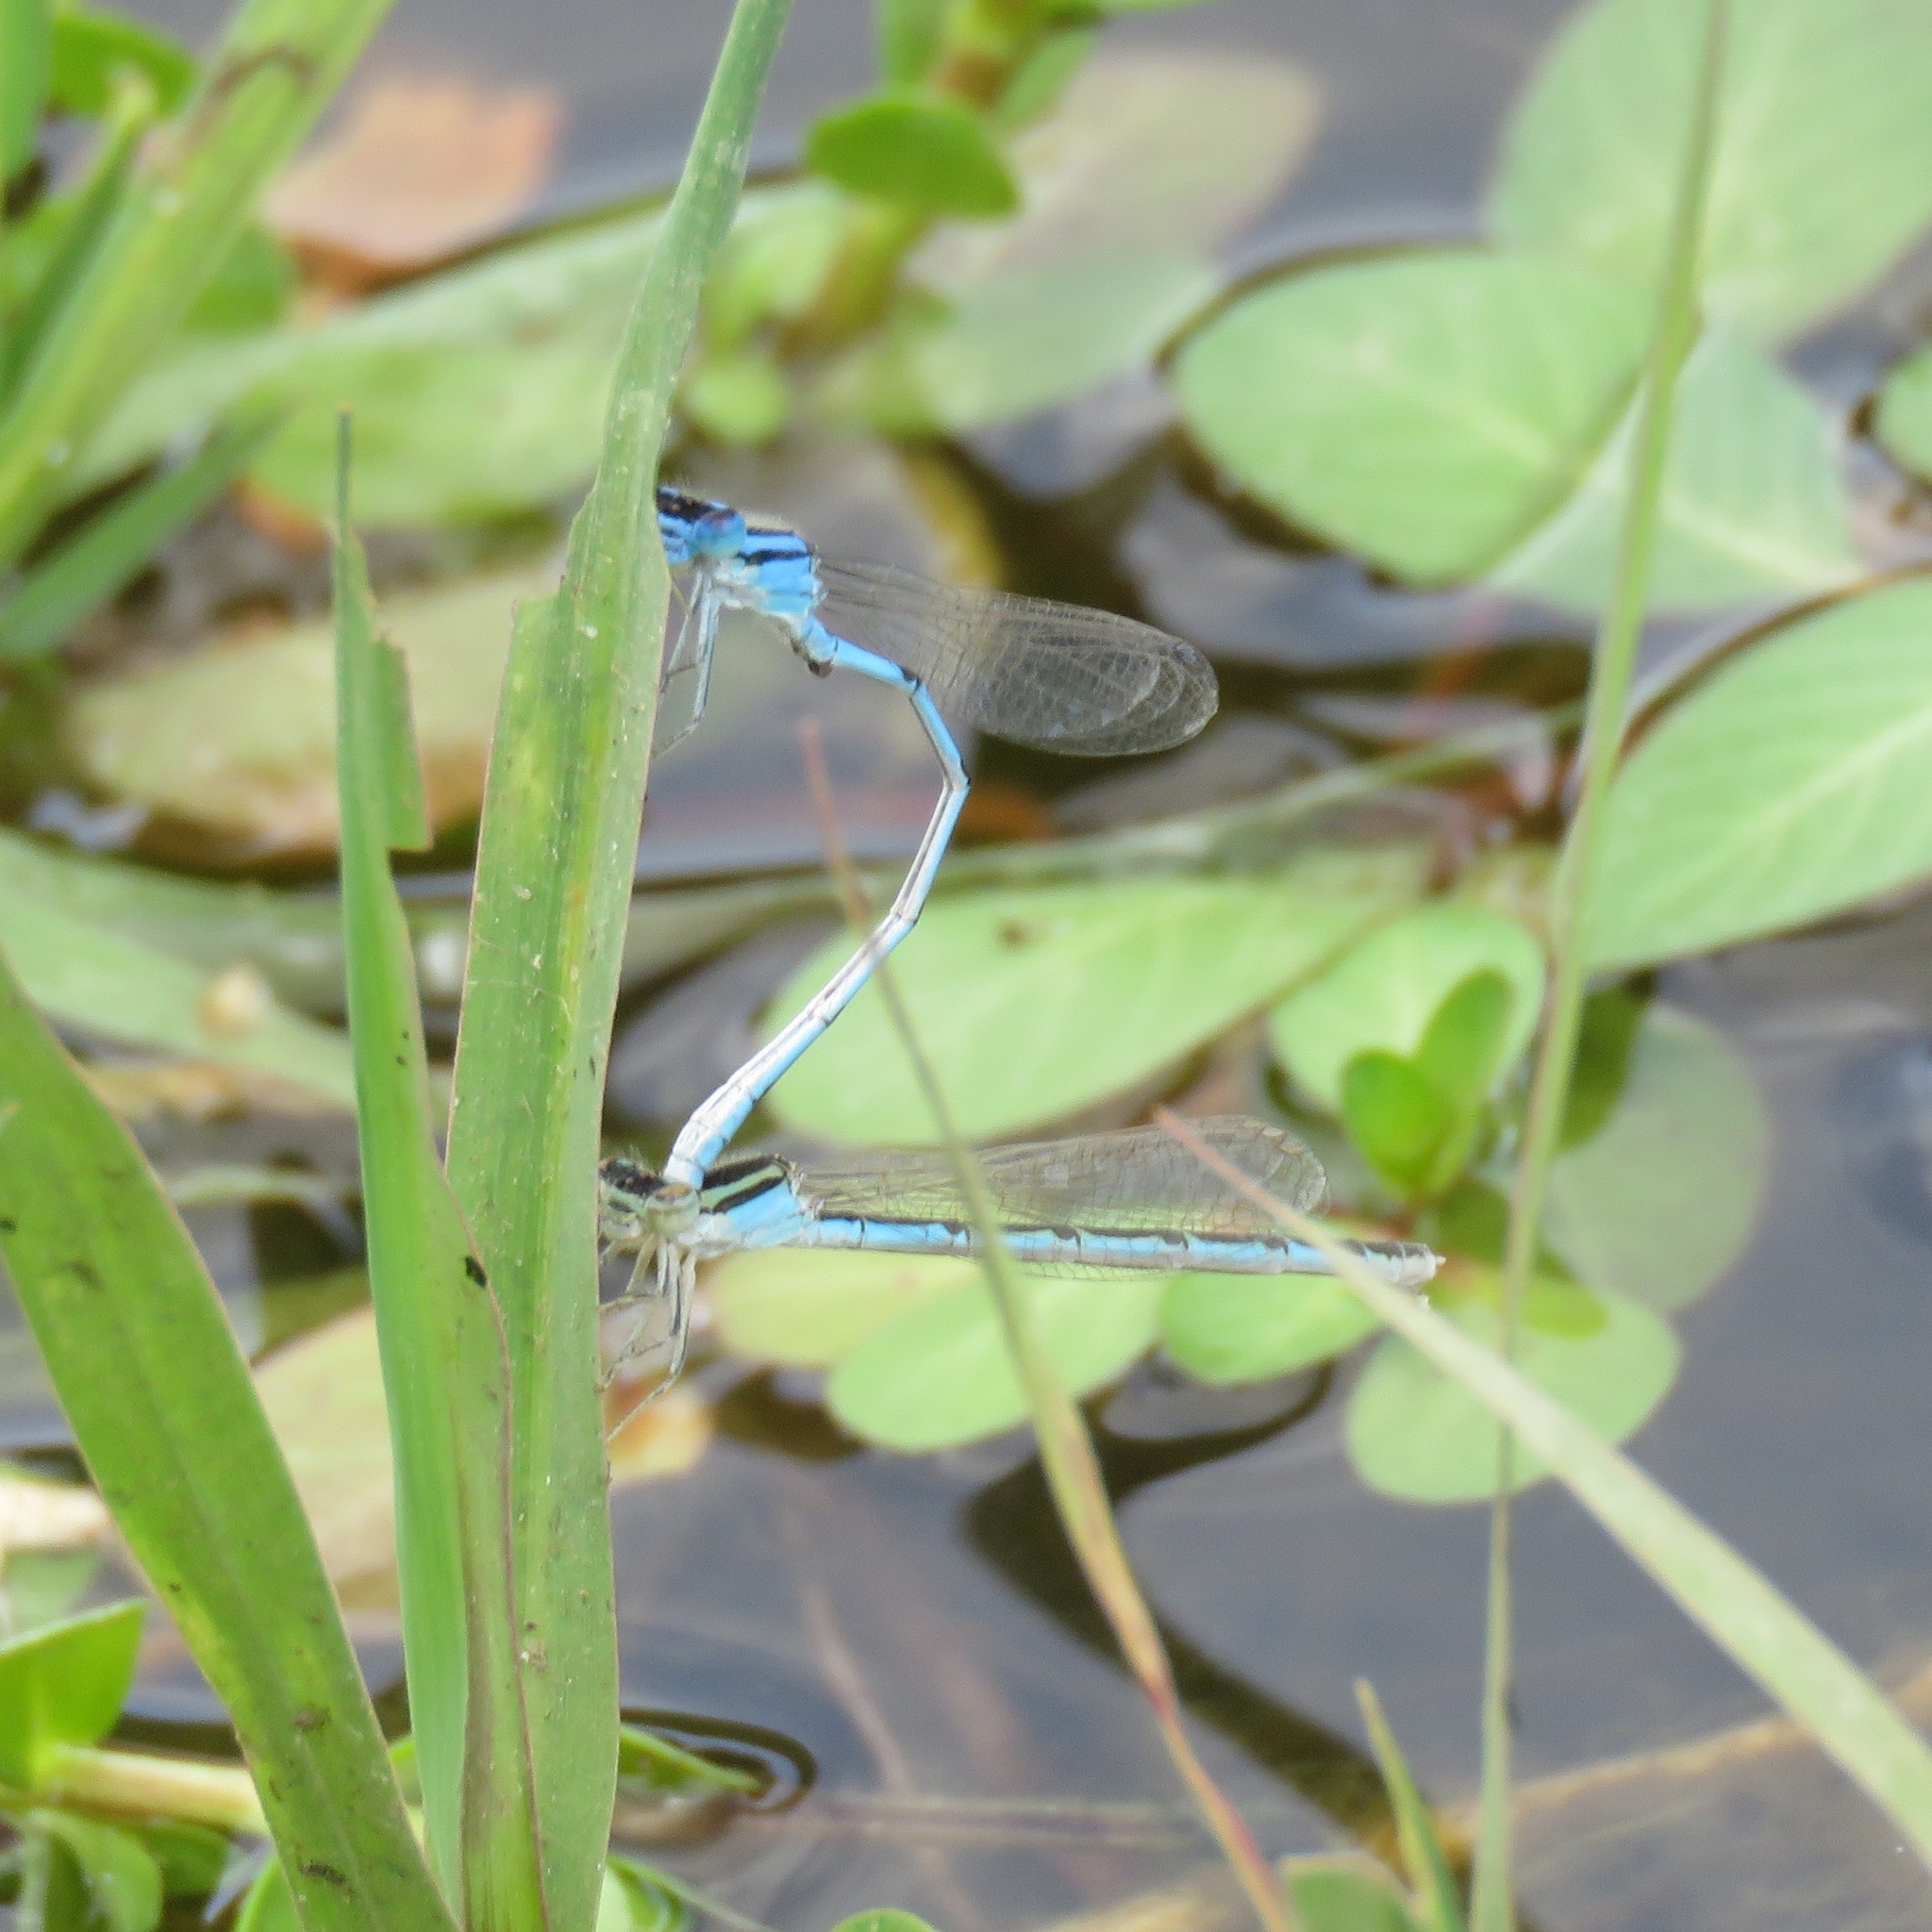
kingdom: Animalia
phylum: Arthropoda
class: Insecta
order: Odonata
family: Coenagrionidae
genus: Enallagma
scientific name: Enallagma civile
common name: Damselfly
